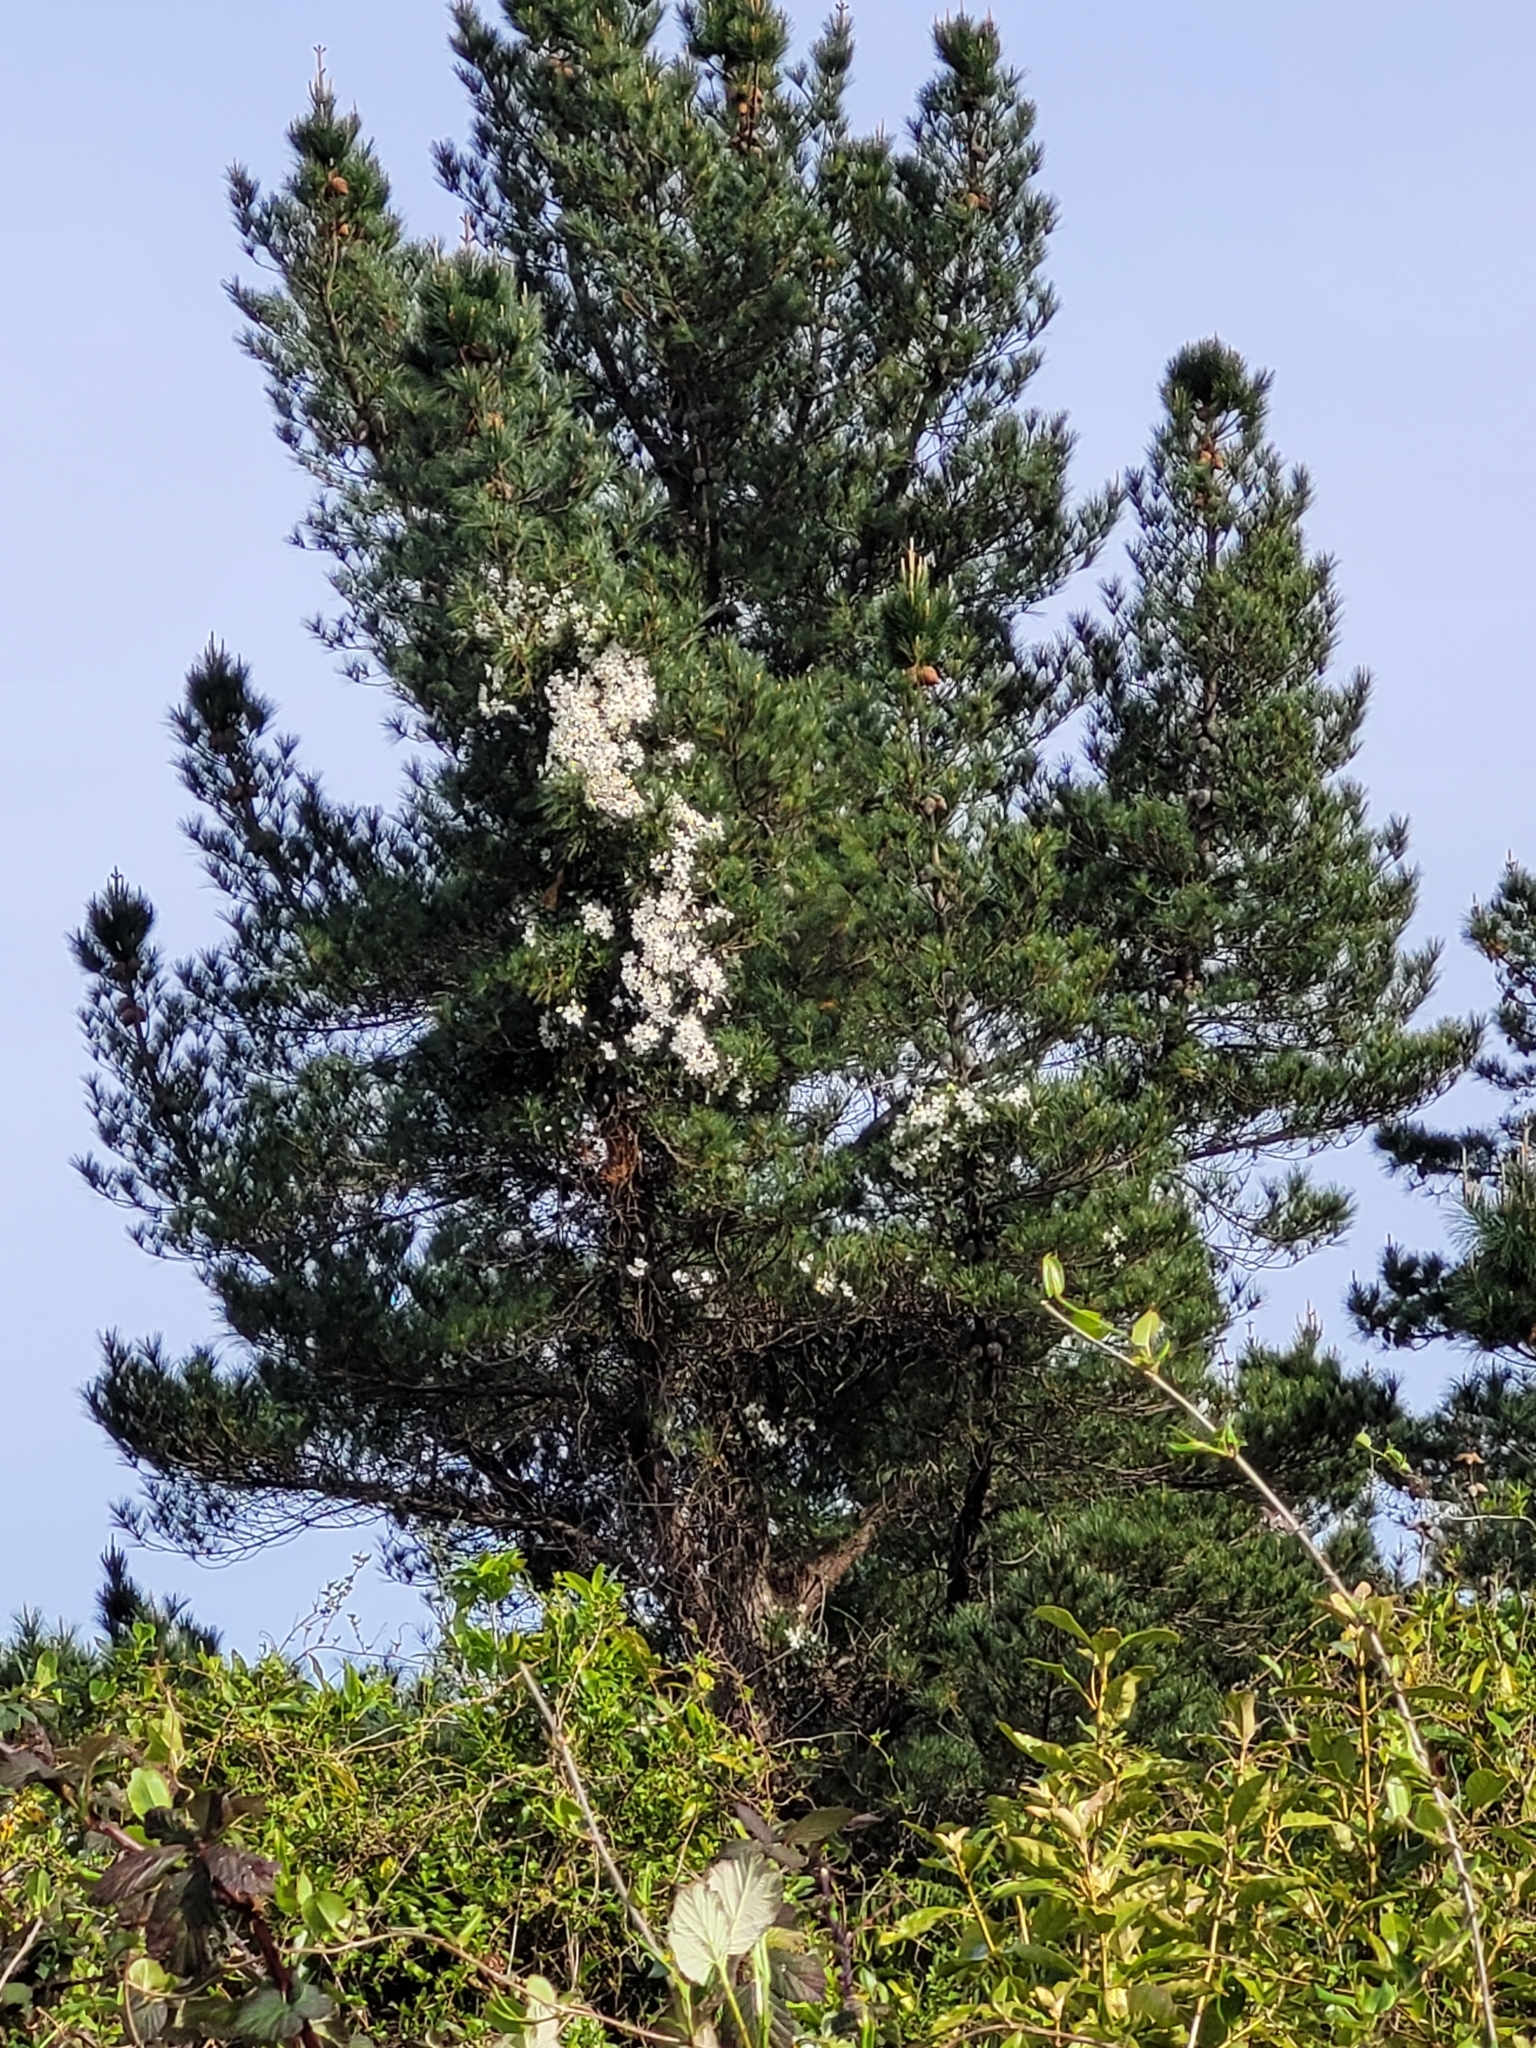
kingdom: Plantae
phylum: Tracheophyta
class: Magnoliopsida
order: Ranunculales
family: Ranunculaceae
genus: Clematis
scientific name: Clematis paniculata
